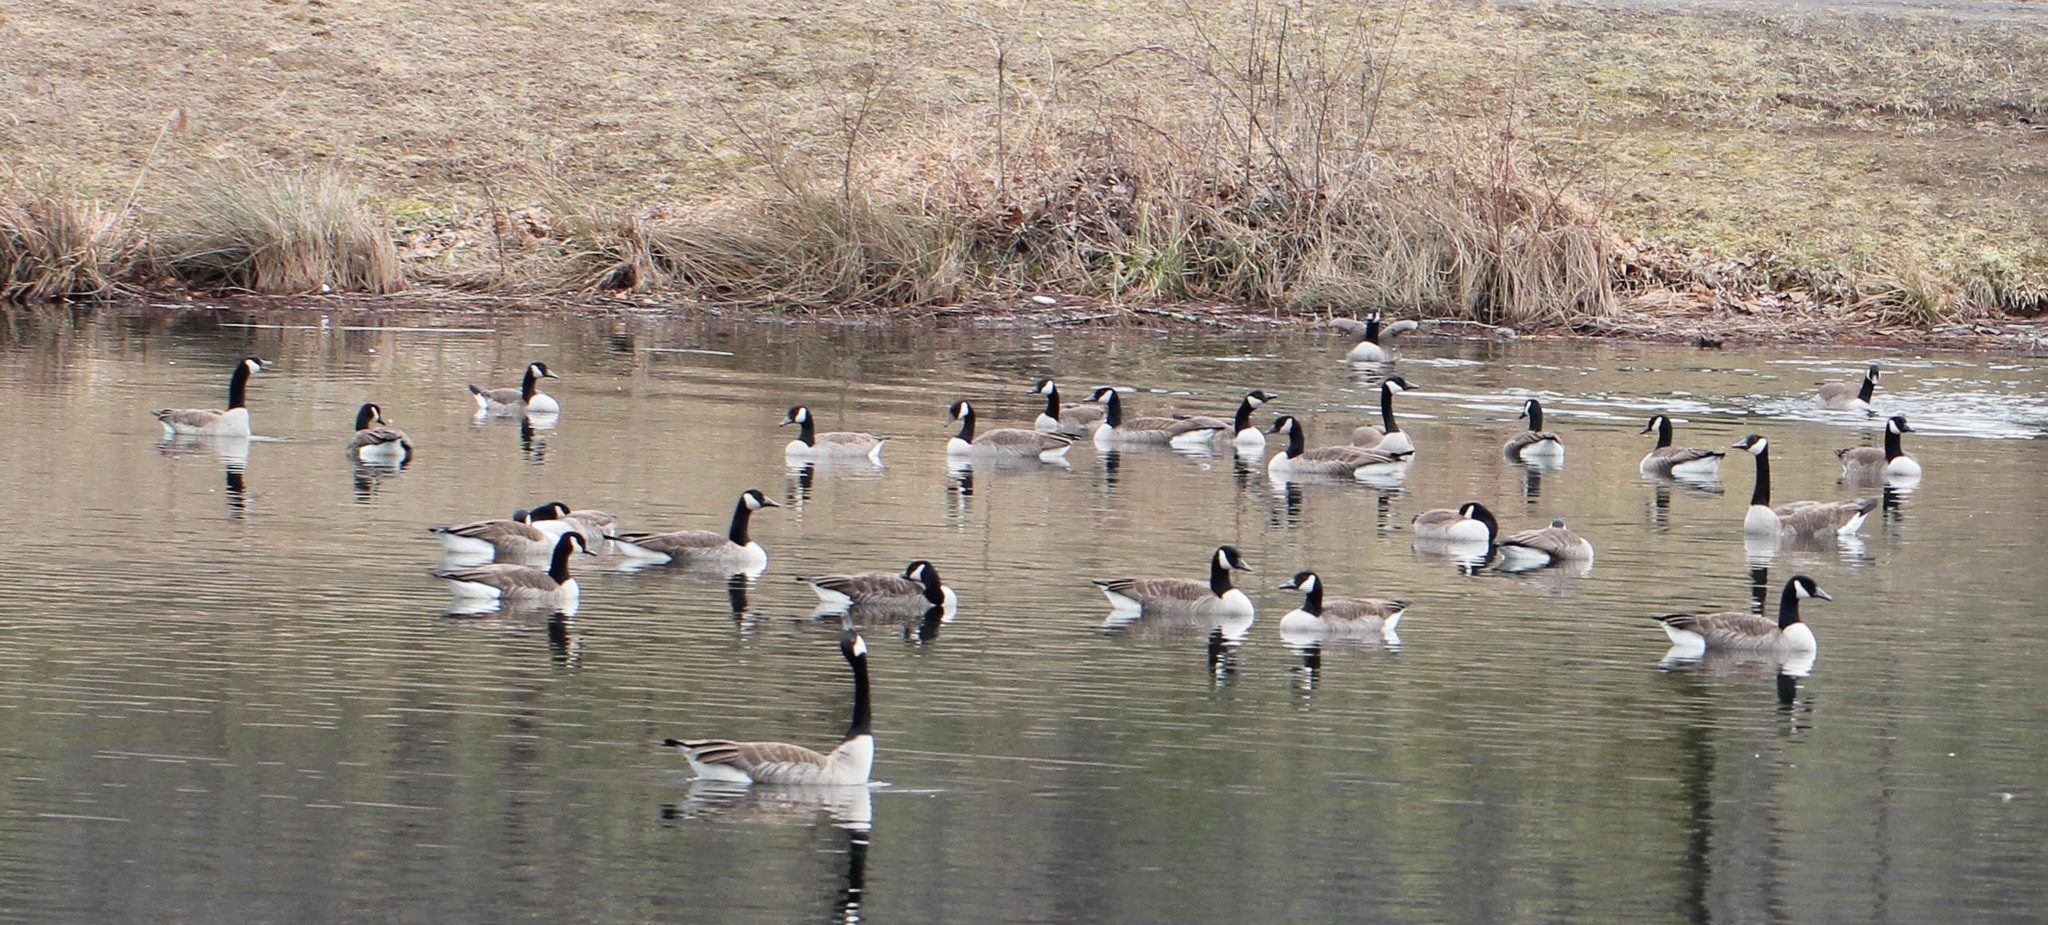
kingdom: Animalia
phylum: Chordata
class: Aves
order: Anseriformes
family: Anatidae
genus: Branta
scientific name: Branta canadensis
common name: Canada goose
